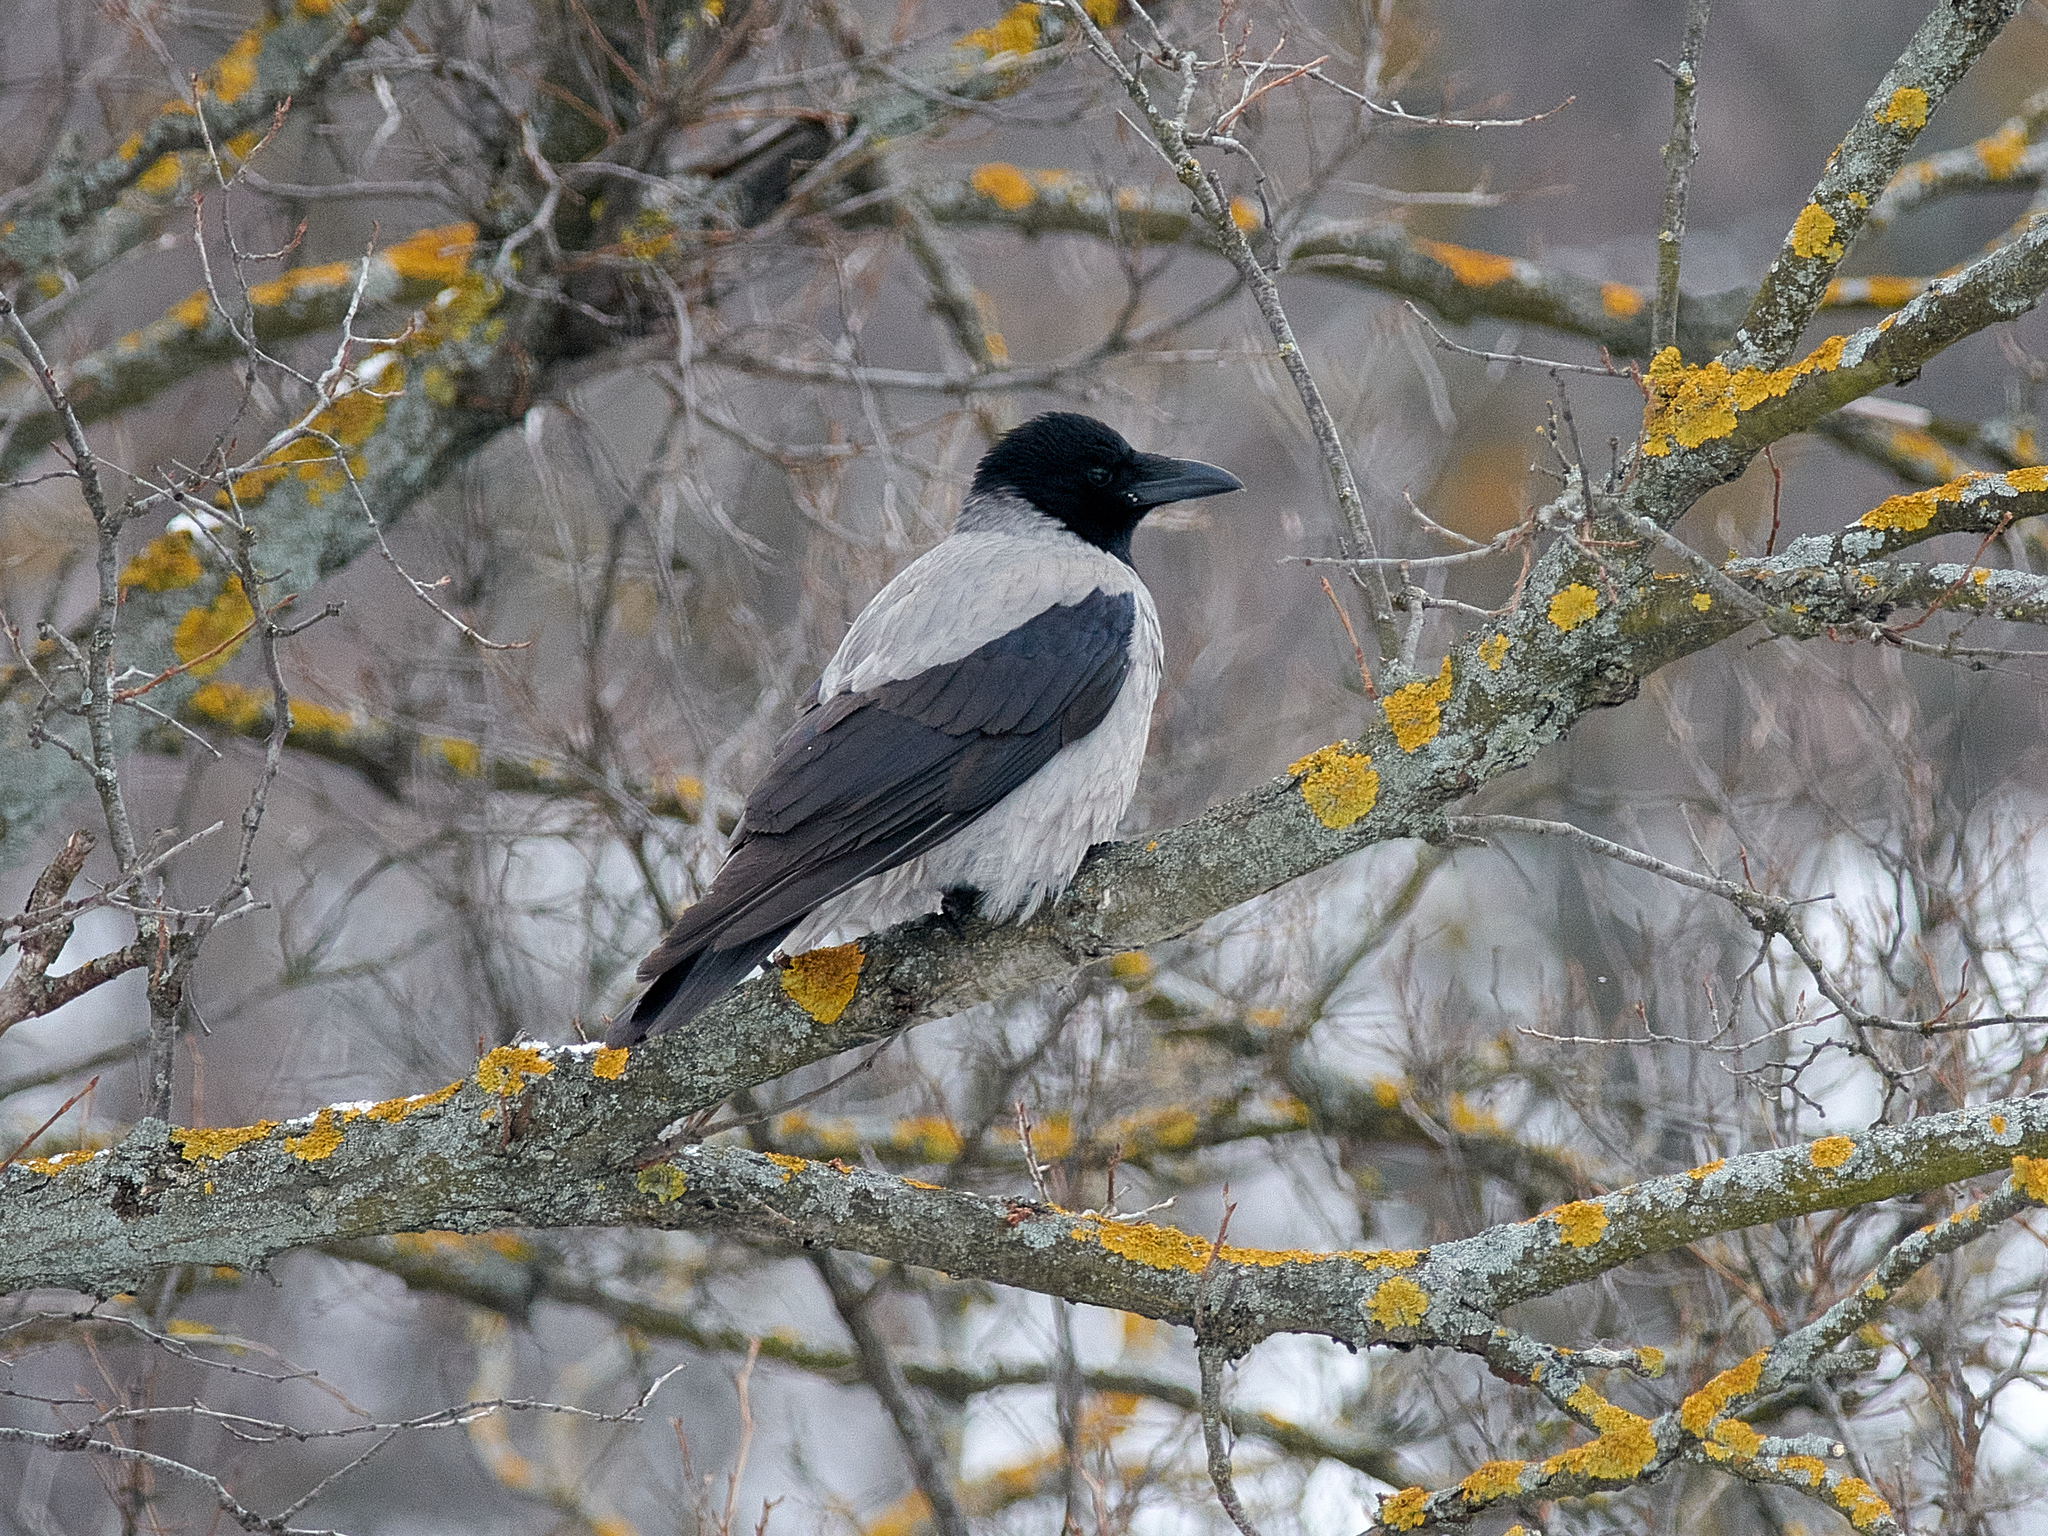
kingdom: Animalia
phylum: Chordata
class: Aves
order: Passeriformes
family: Corvidae
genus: Corvus
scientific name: Corvus cornix
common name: Hooded crow
